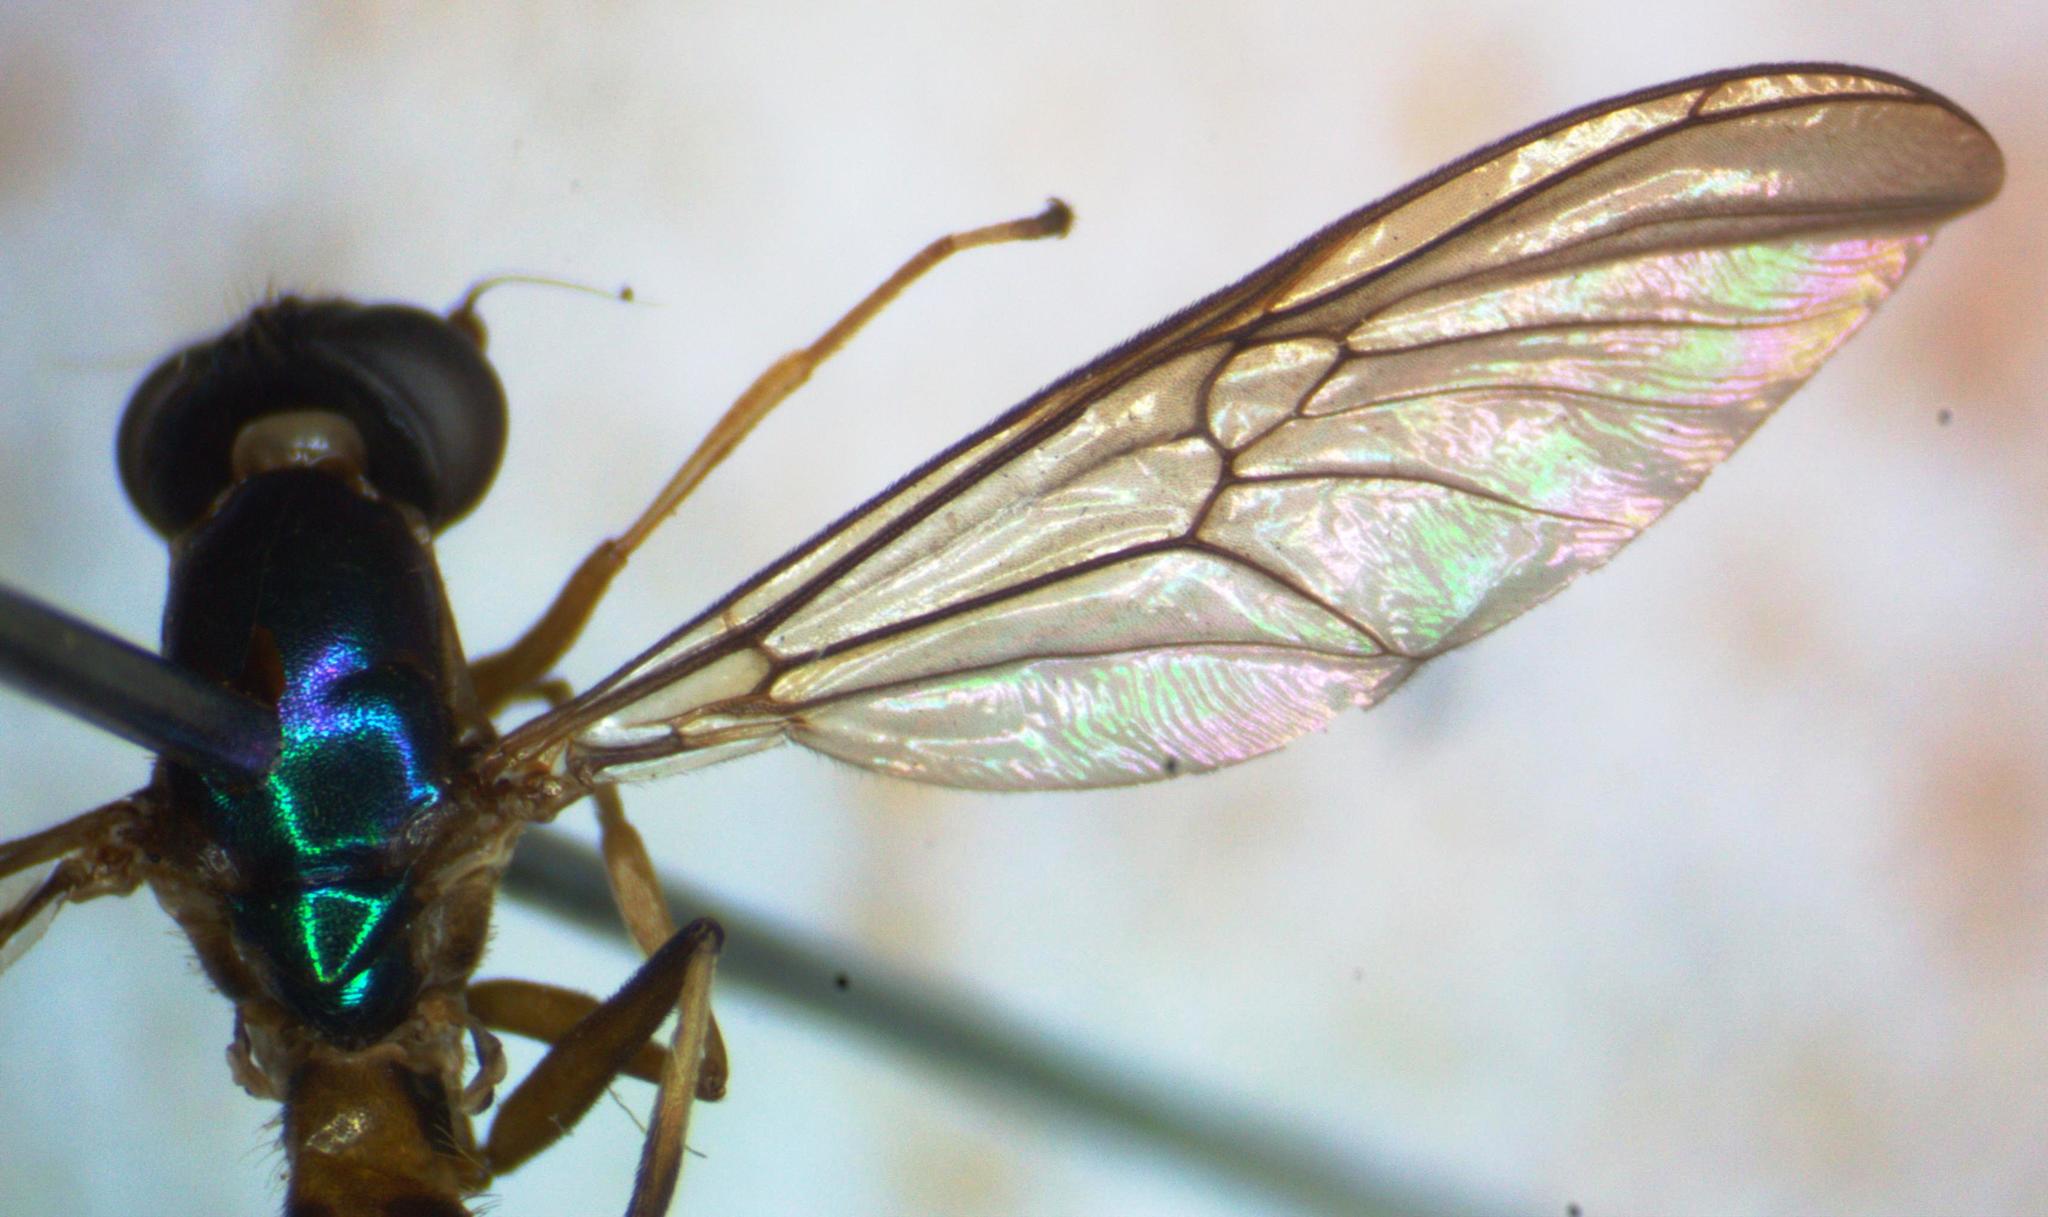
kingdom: Animalia
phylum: Arthropoda
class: Insecta
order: Diptera
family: Stratiomyidae
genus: Merosargus
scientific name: Merosargus bequaerti
